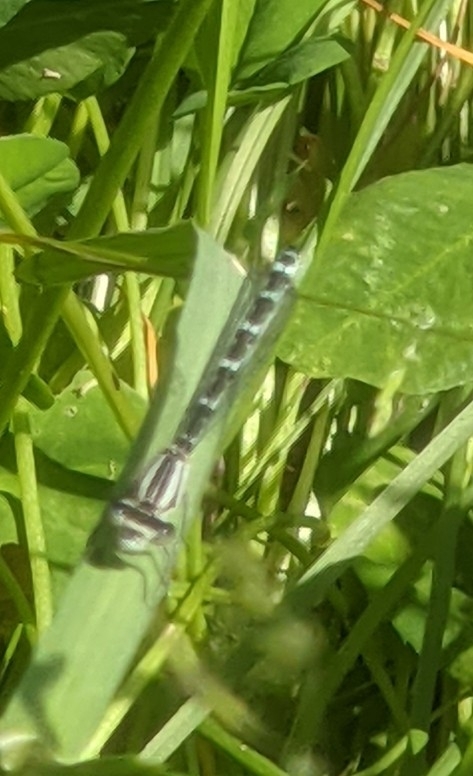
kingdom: Animalia
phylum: Arthropoda
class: Insecta
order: Odonata
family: Coenagrionidae
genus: Enallagma
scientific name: Enallagma cyathigerum
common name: Common blue damselfly
